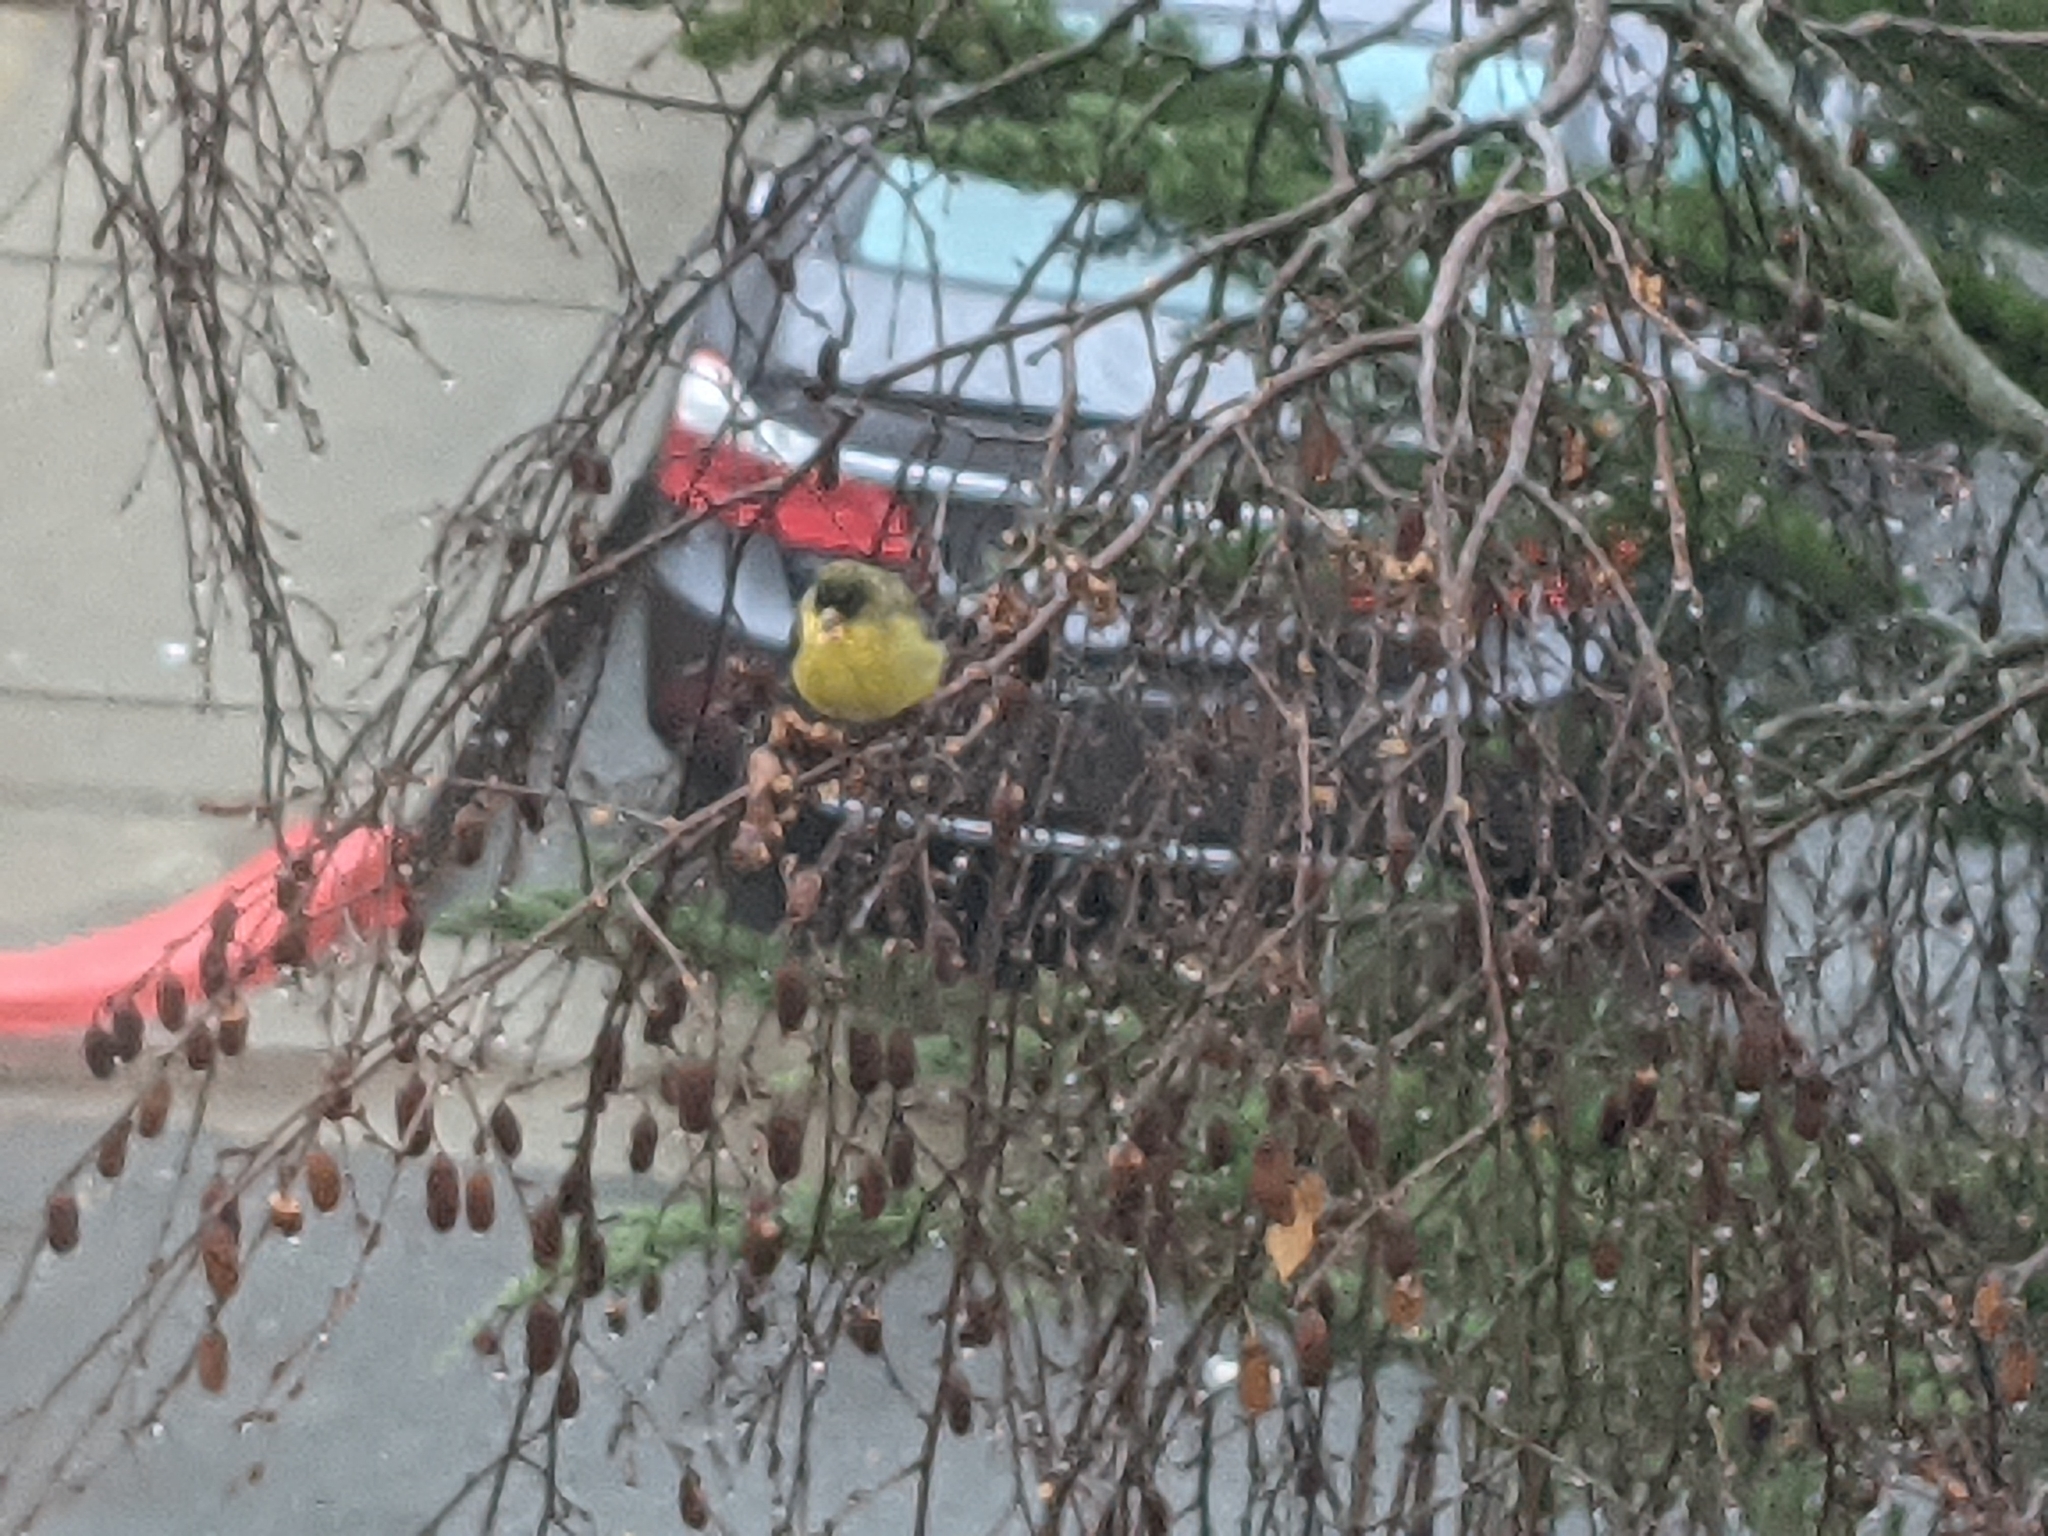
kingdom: Animalia
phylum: Chordata
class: Aves
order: Passeriformes
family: Fringillidae
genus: Spinus
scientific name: Spinus psaltria
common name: Lesser goldfinch
